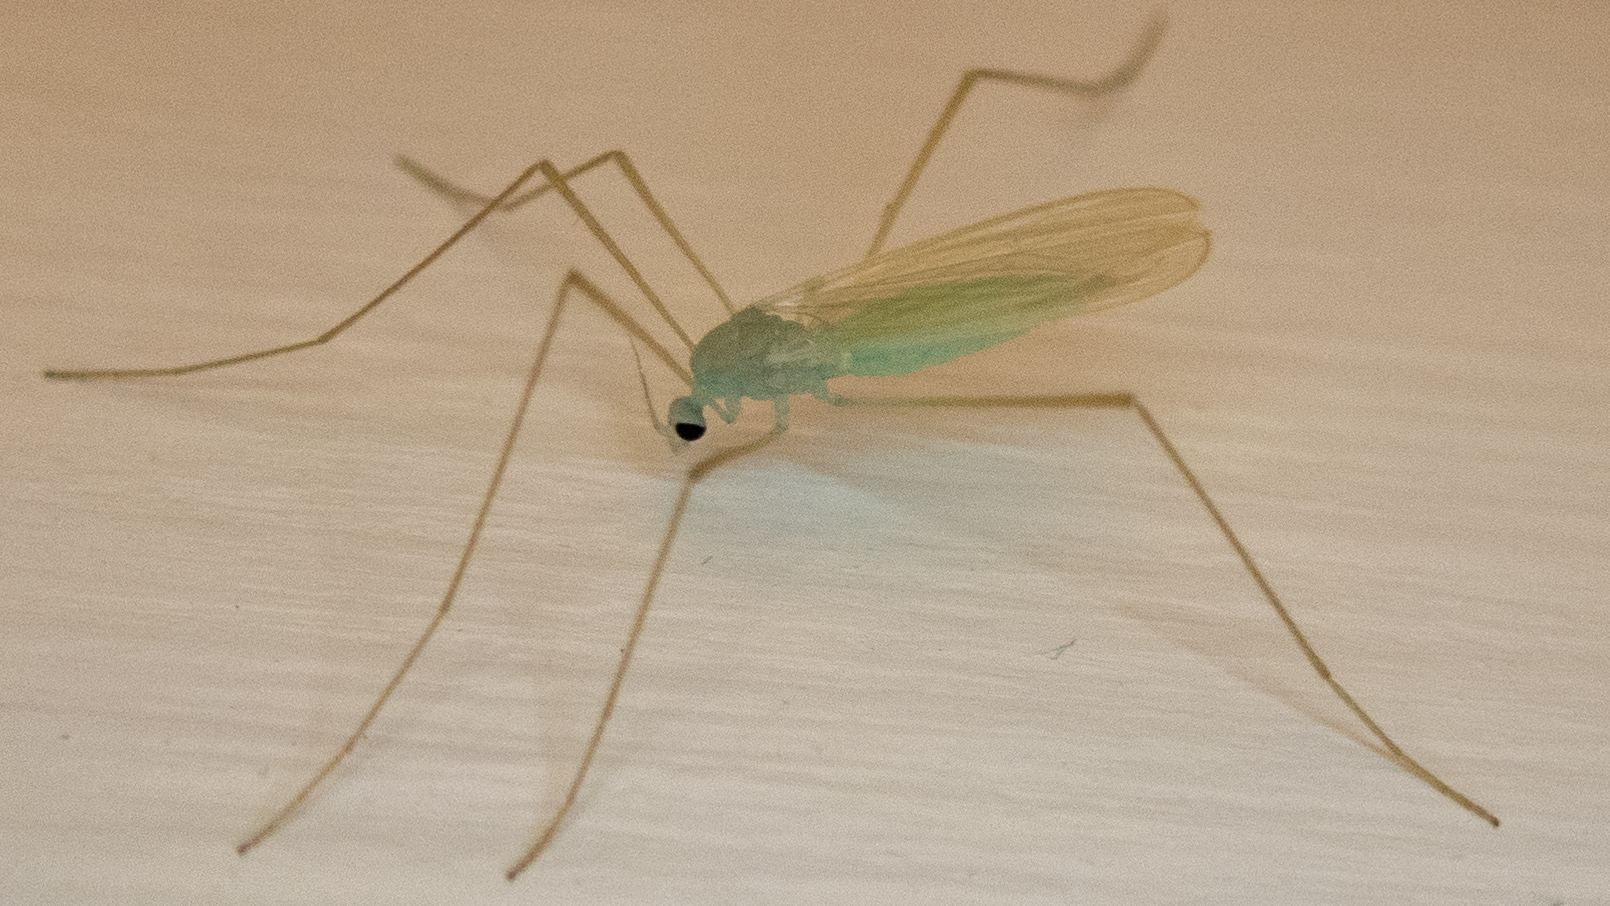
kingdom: Animalia
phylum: Arthropoda
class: Insecta
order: Diptera
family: Limoniidae
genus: Erioptera
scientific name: Erioptera
